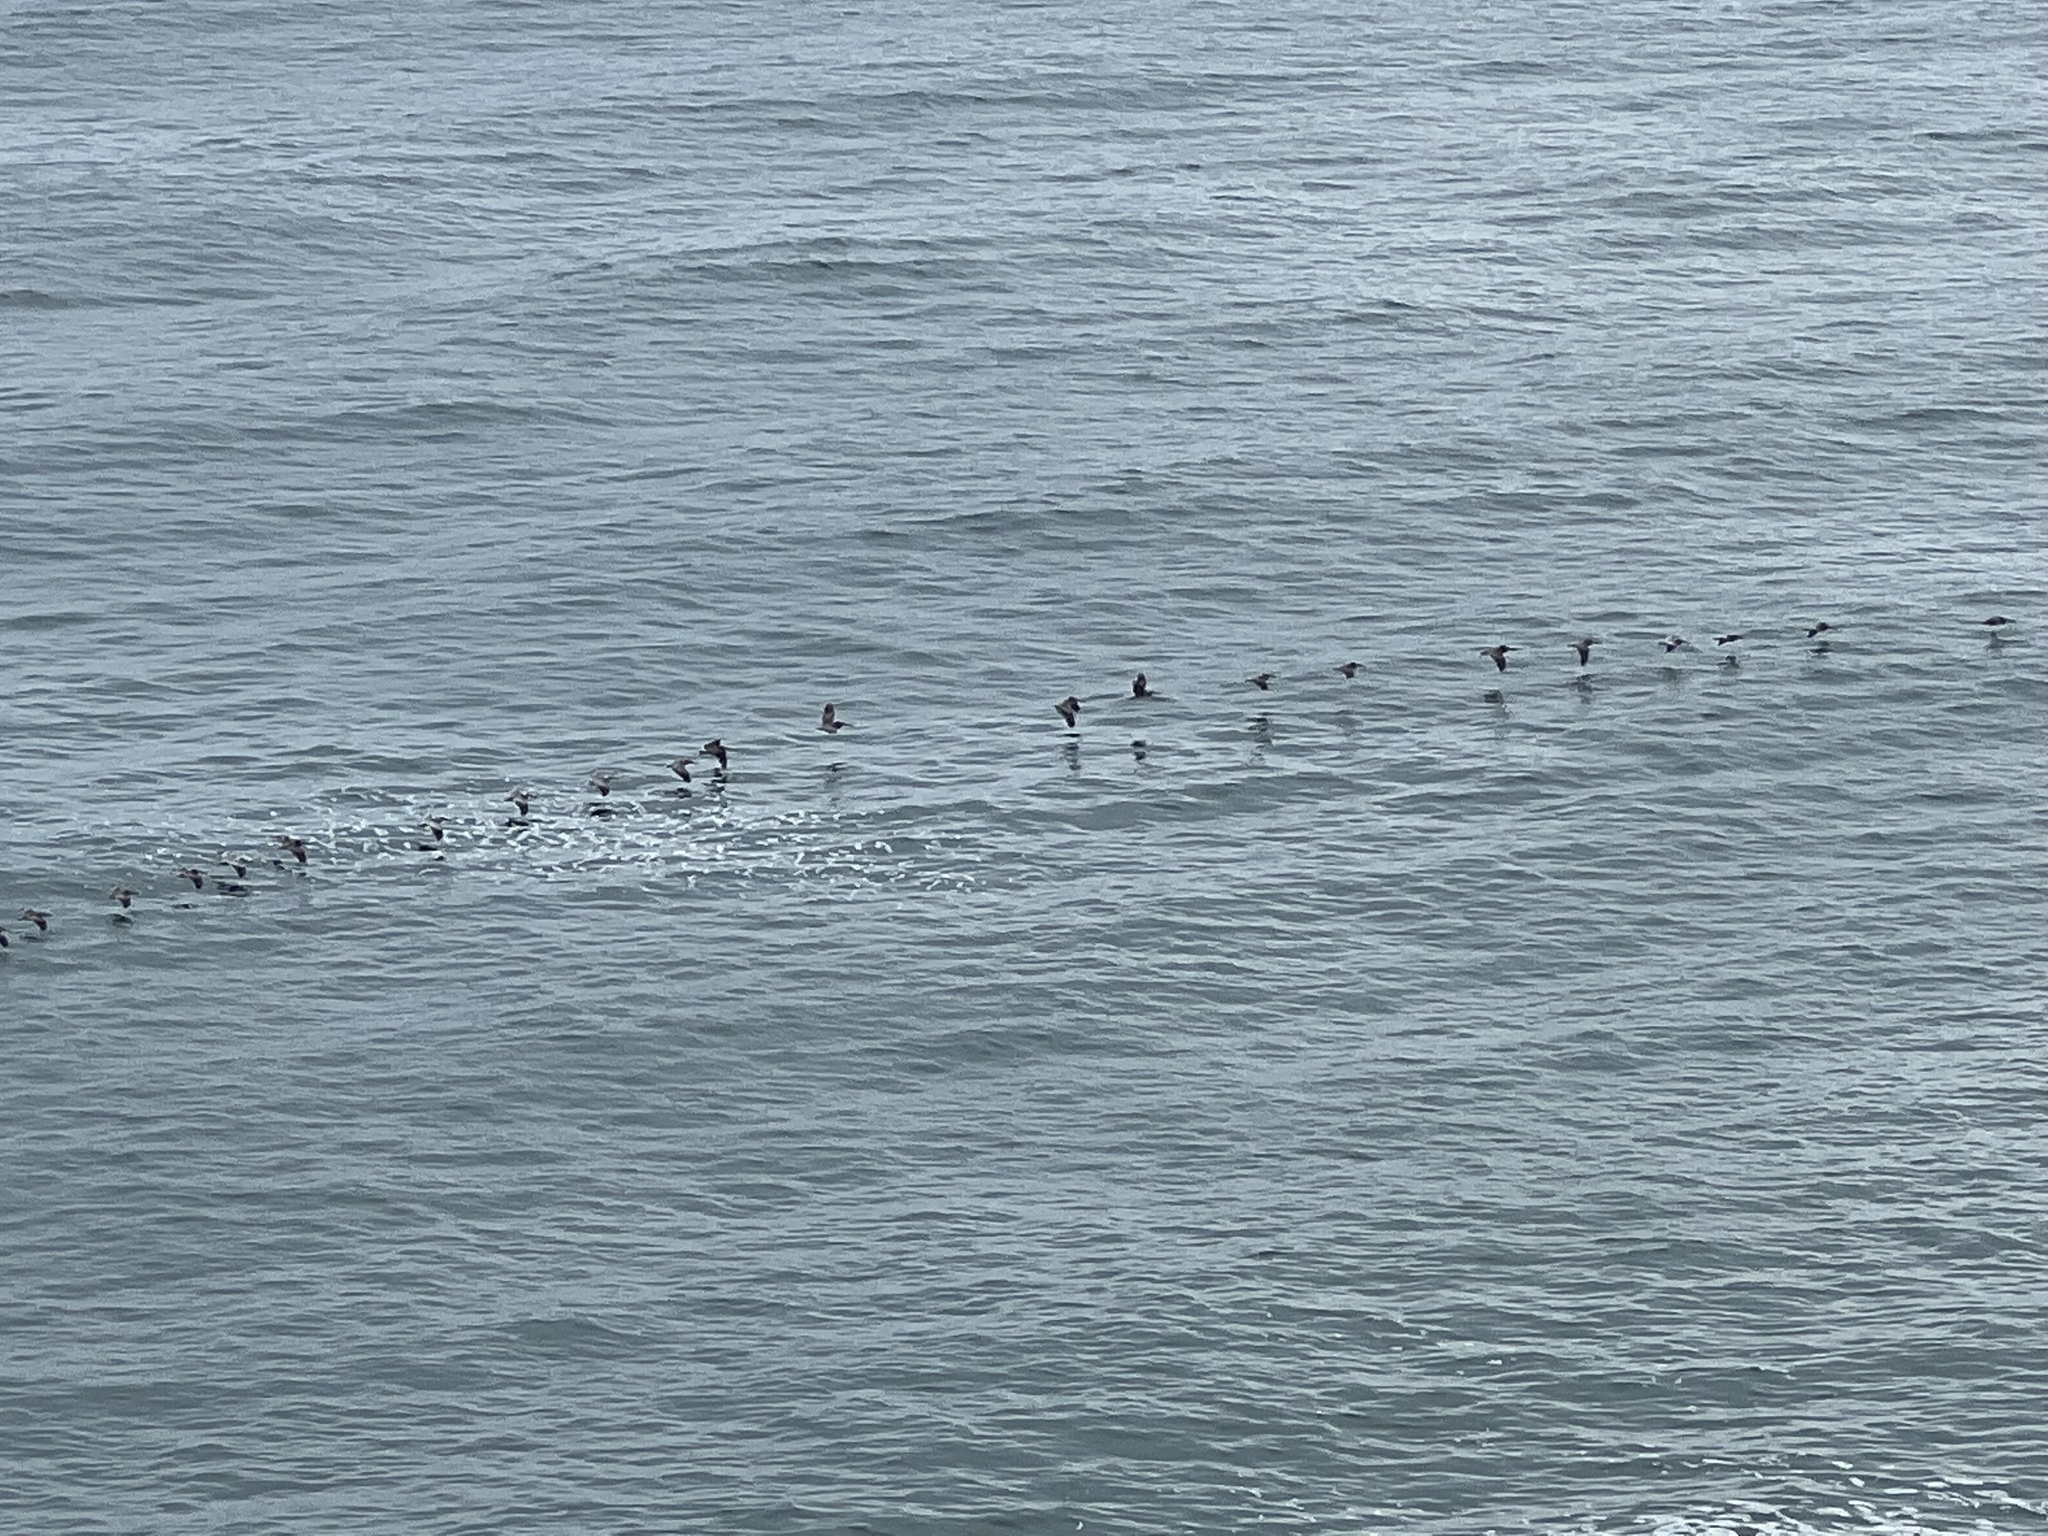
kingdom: Animalia
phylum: Chordata
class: Aves
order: Pelecaniformes
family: Pelecanidae
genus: Pelecanus
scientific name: Pelecanus occidentalis
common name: Brown pelican
